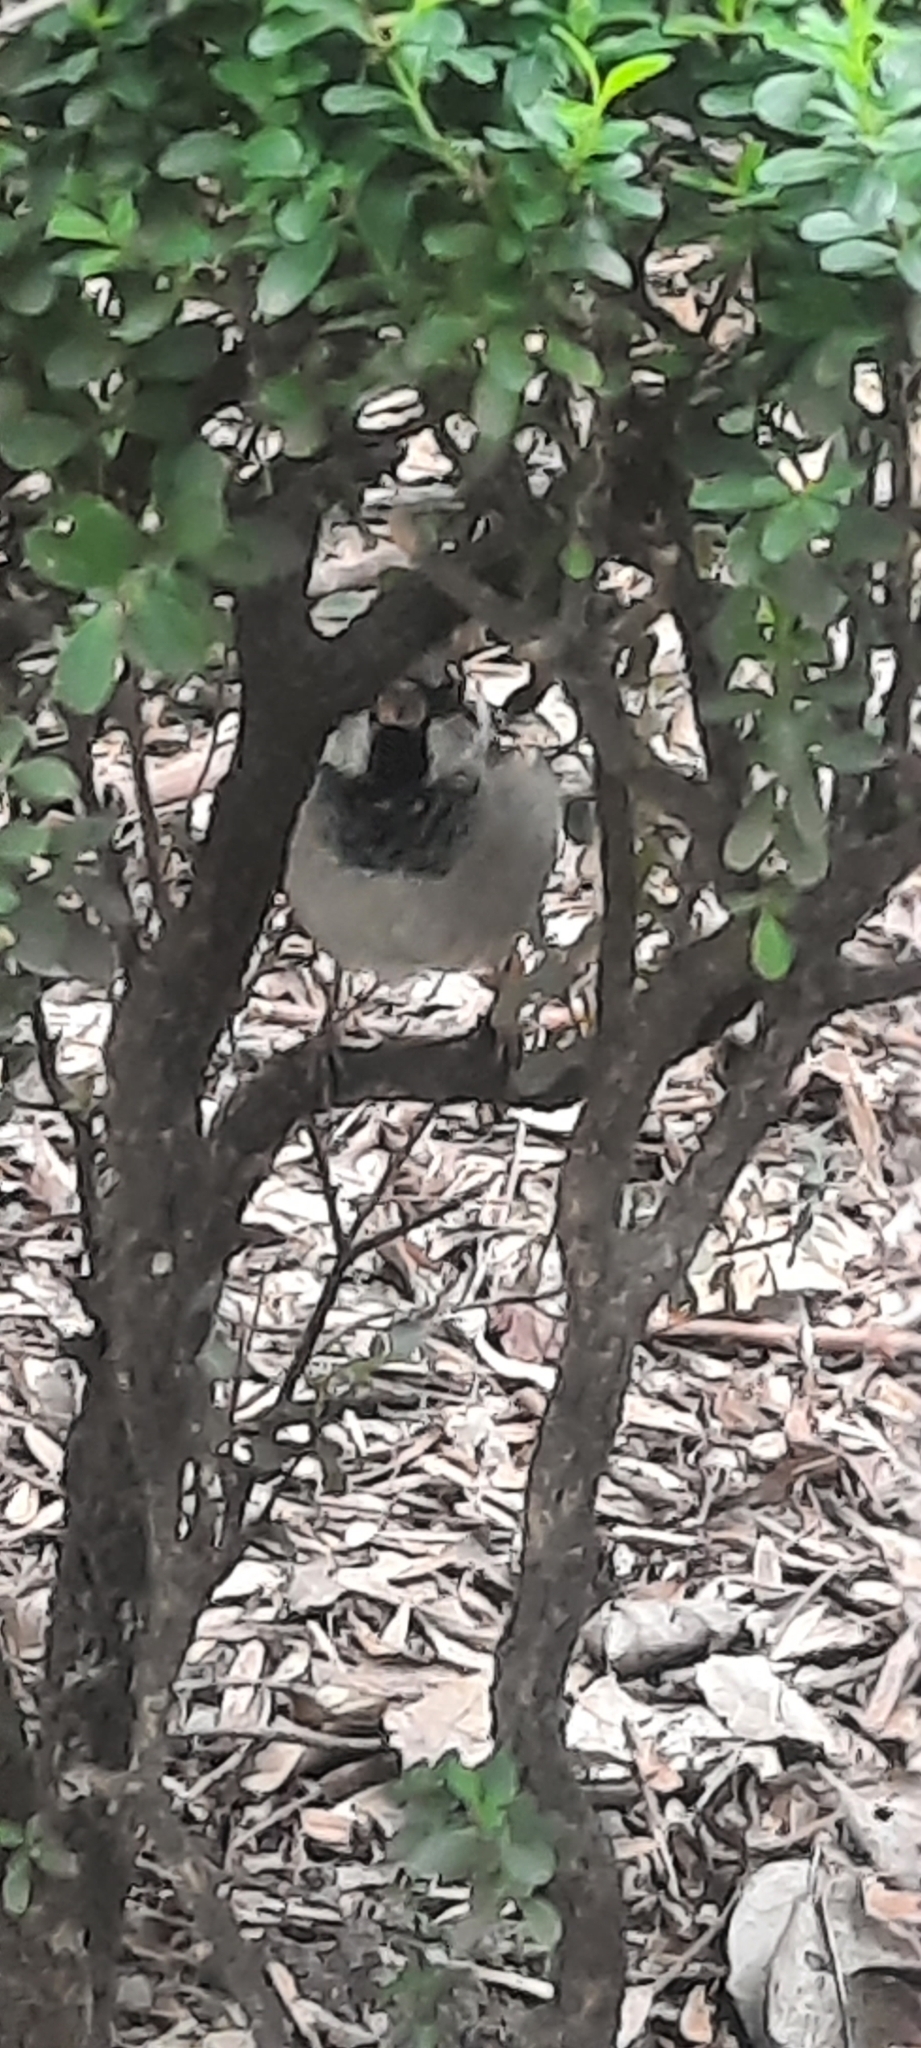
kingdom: Animalia
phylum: Chordata
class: Aves
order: Passeriformes
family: Passeridae
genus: Passer
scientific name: Passer domesticus
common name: House sparrow
